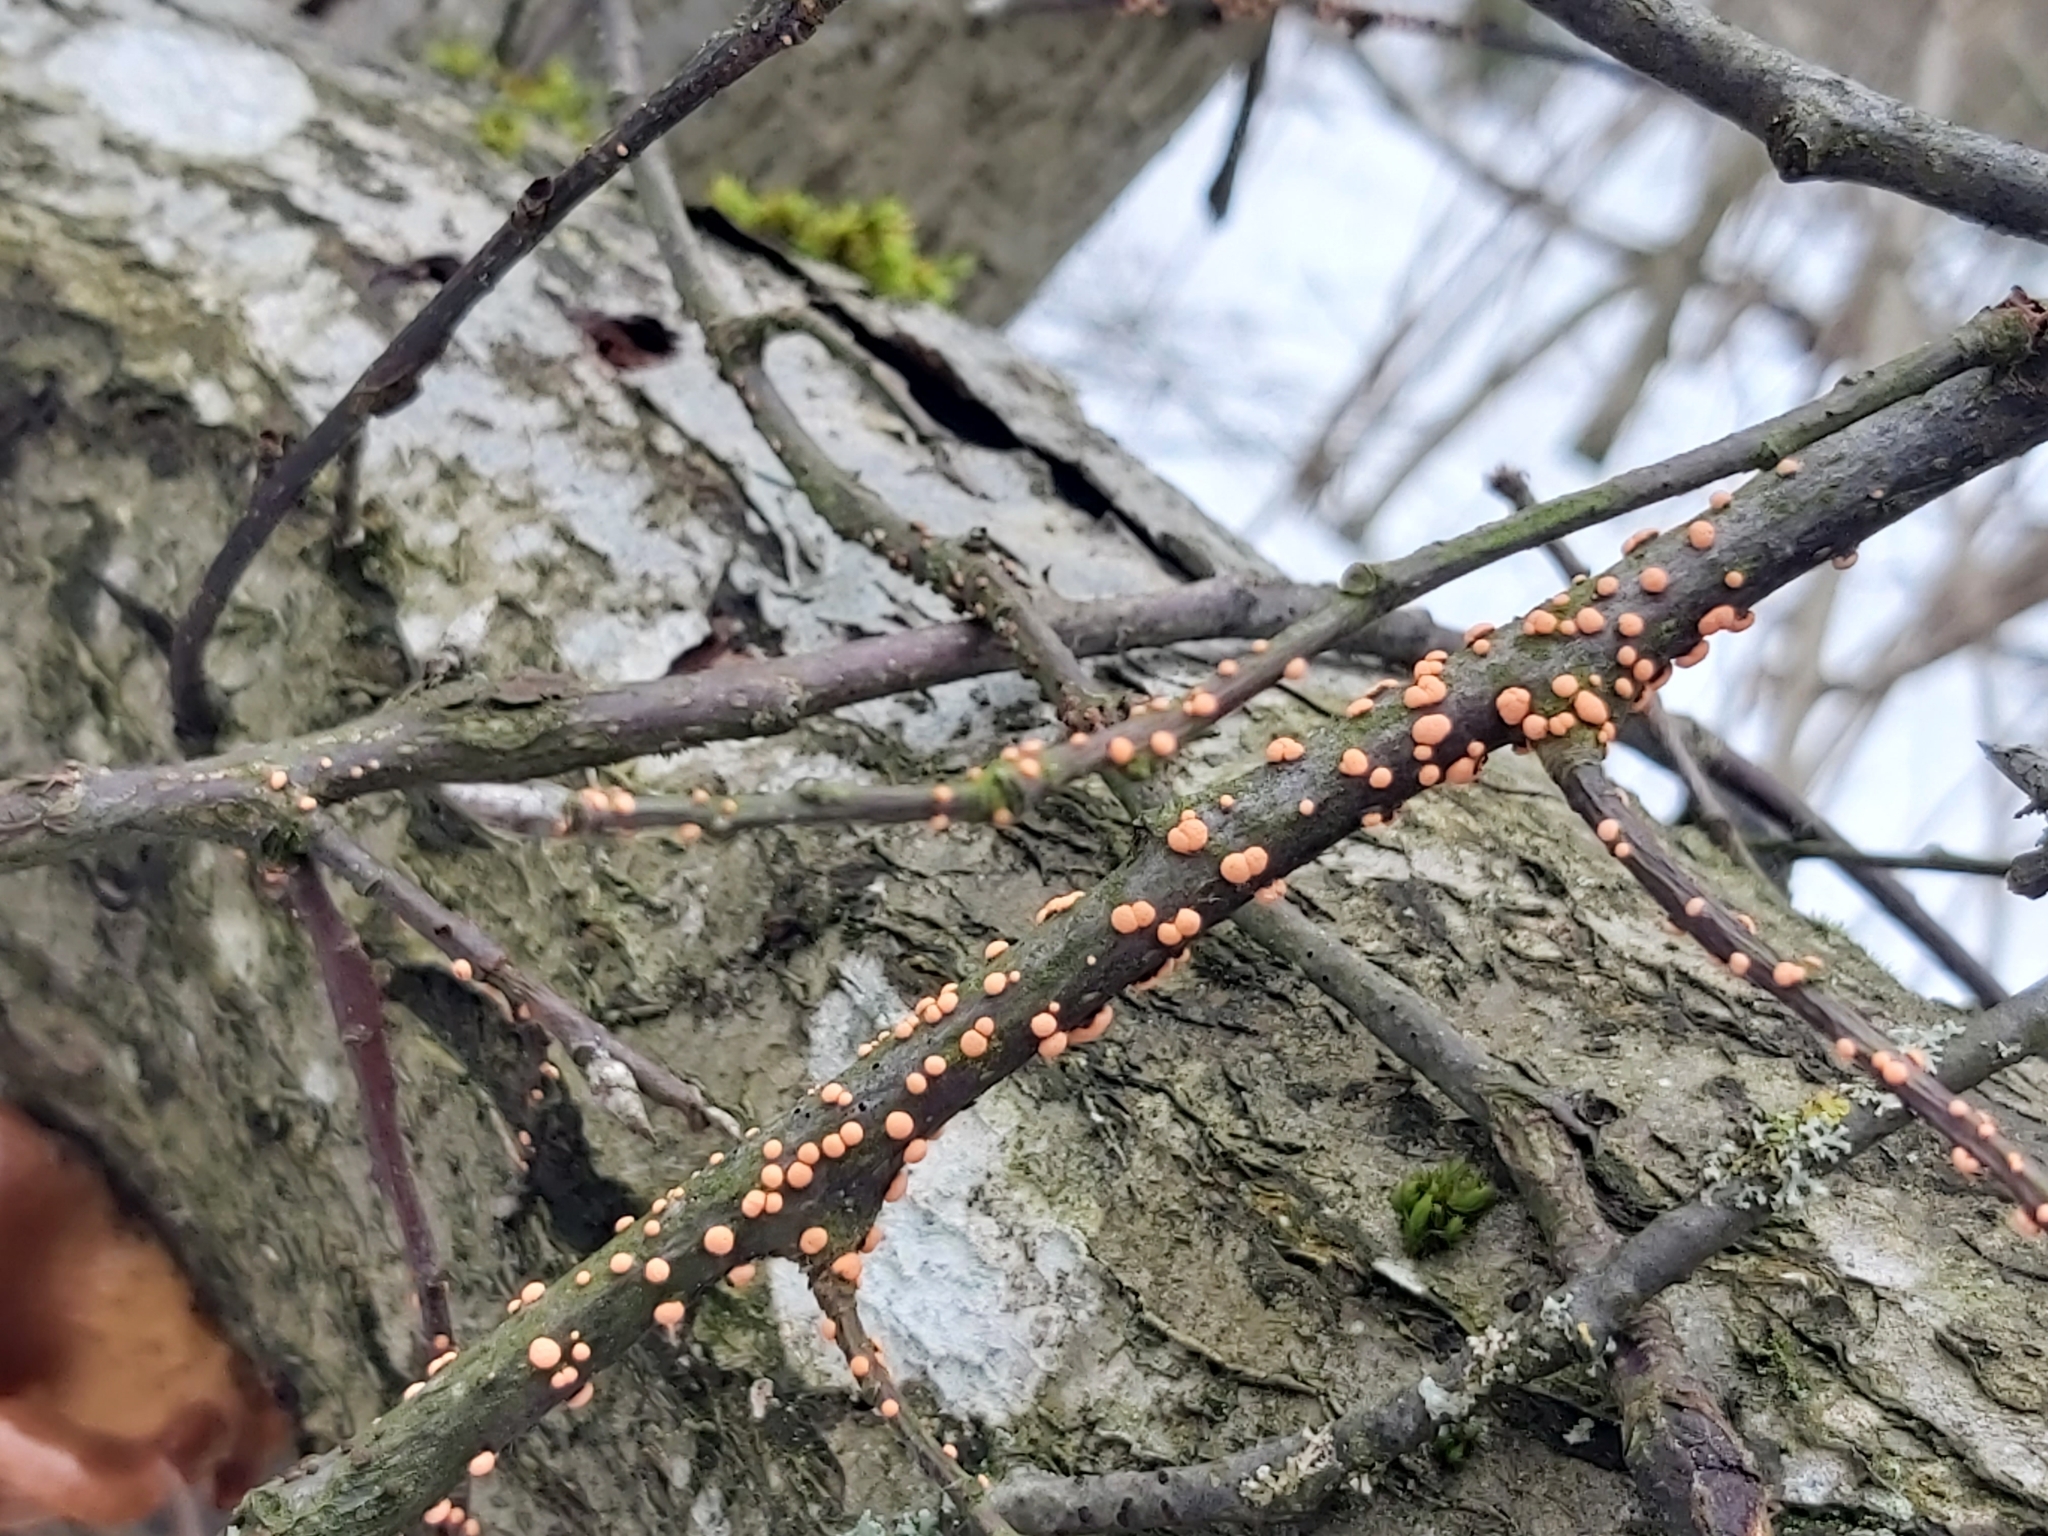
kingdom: Fungi
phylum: Ascomycota
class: Sordariomycetes
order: Hypocreales
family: Nectriaceae
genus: Nectria
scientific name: Nectria cinnabarina
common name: Coral spot
